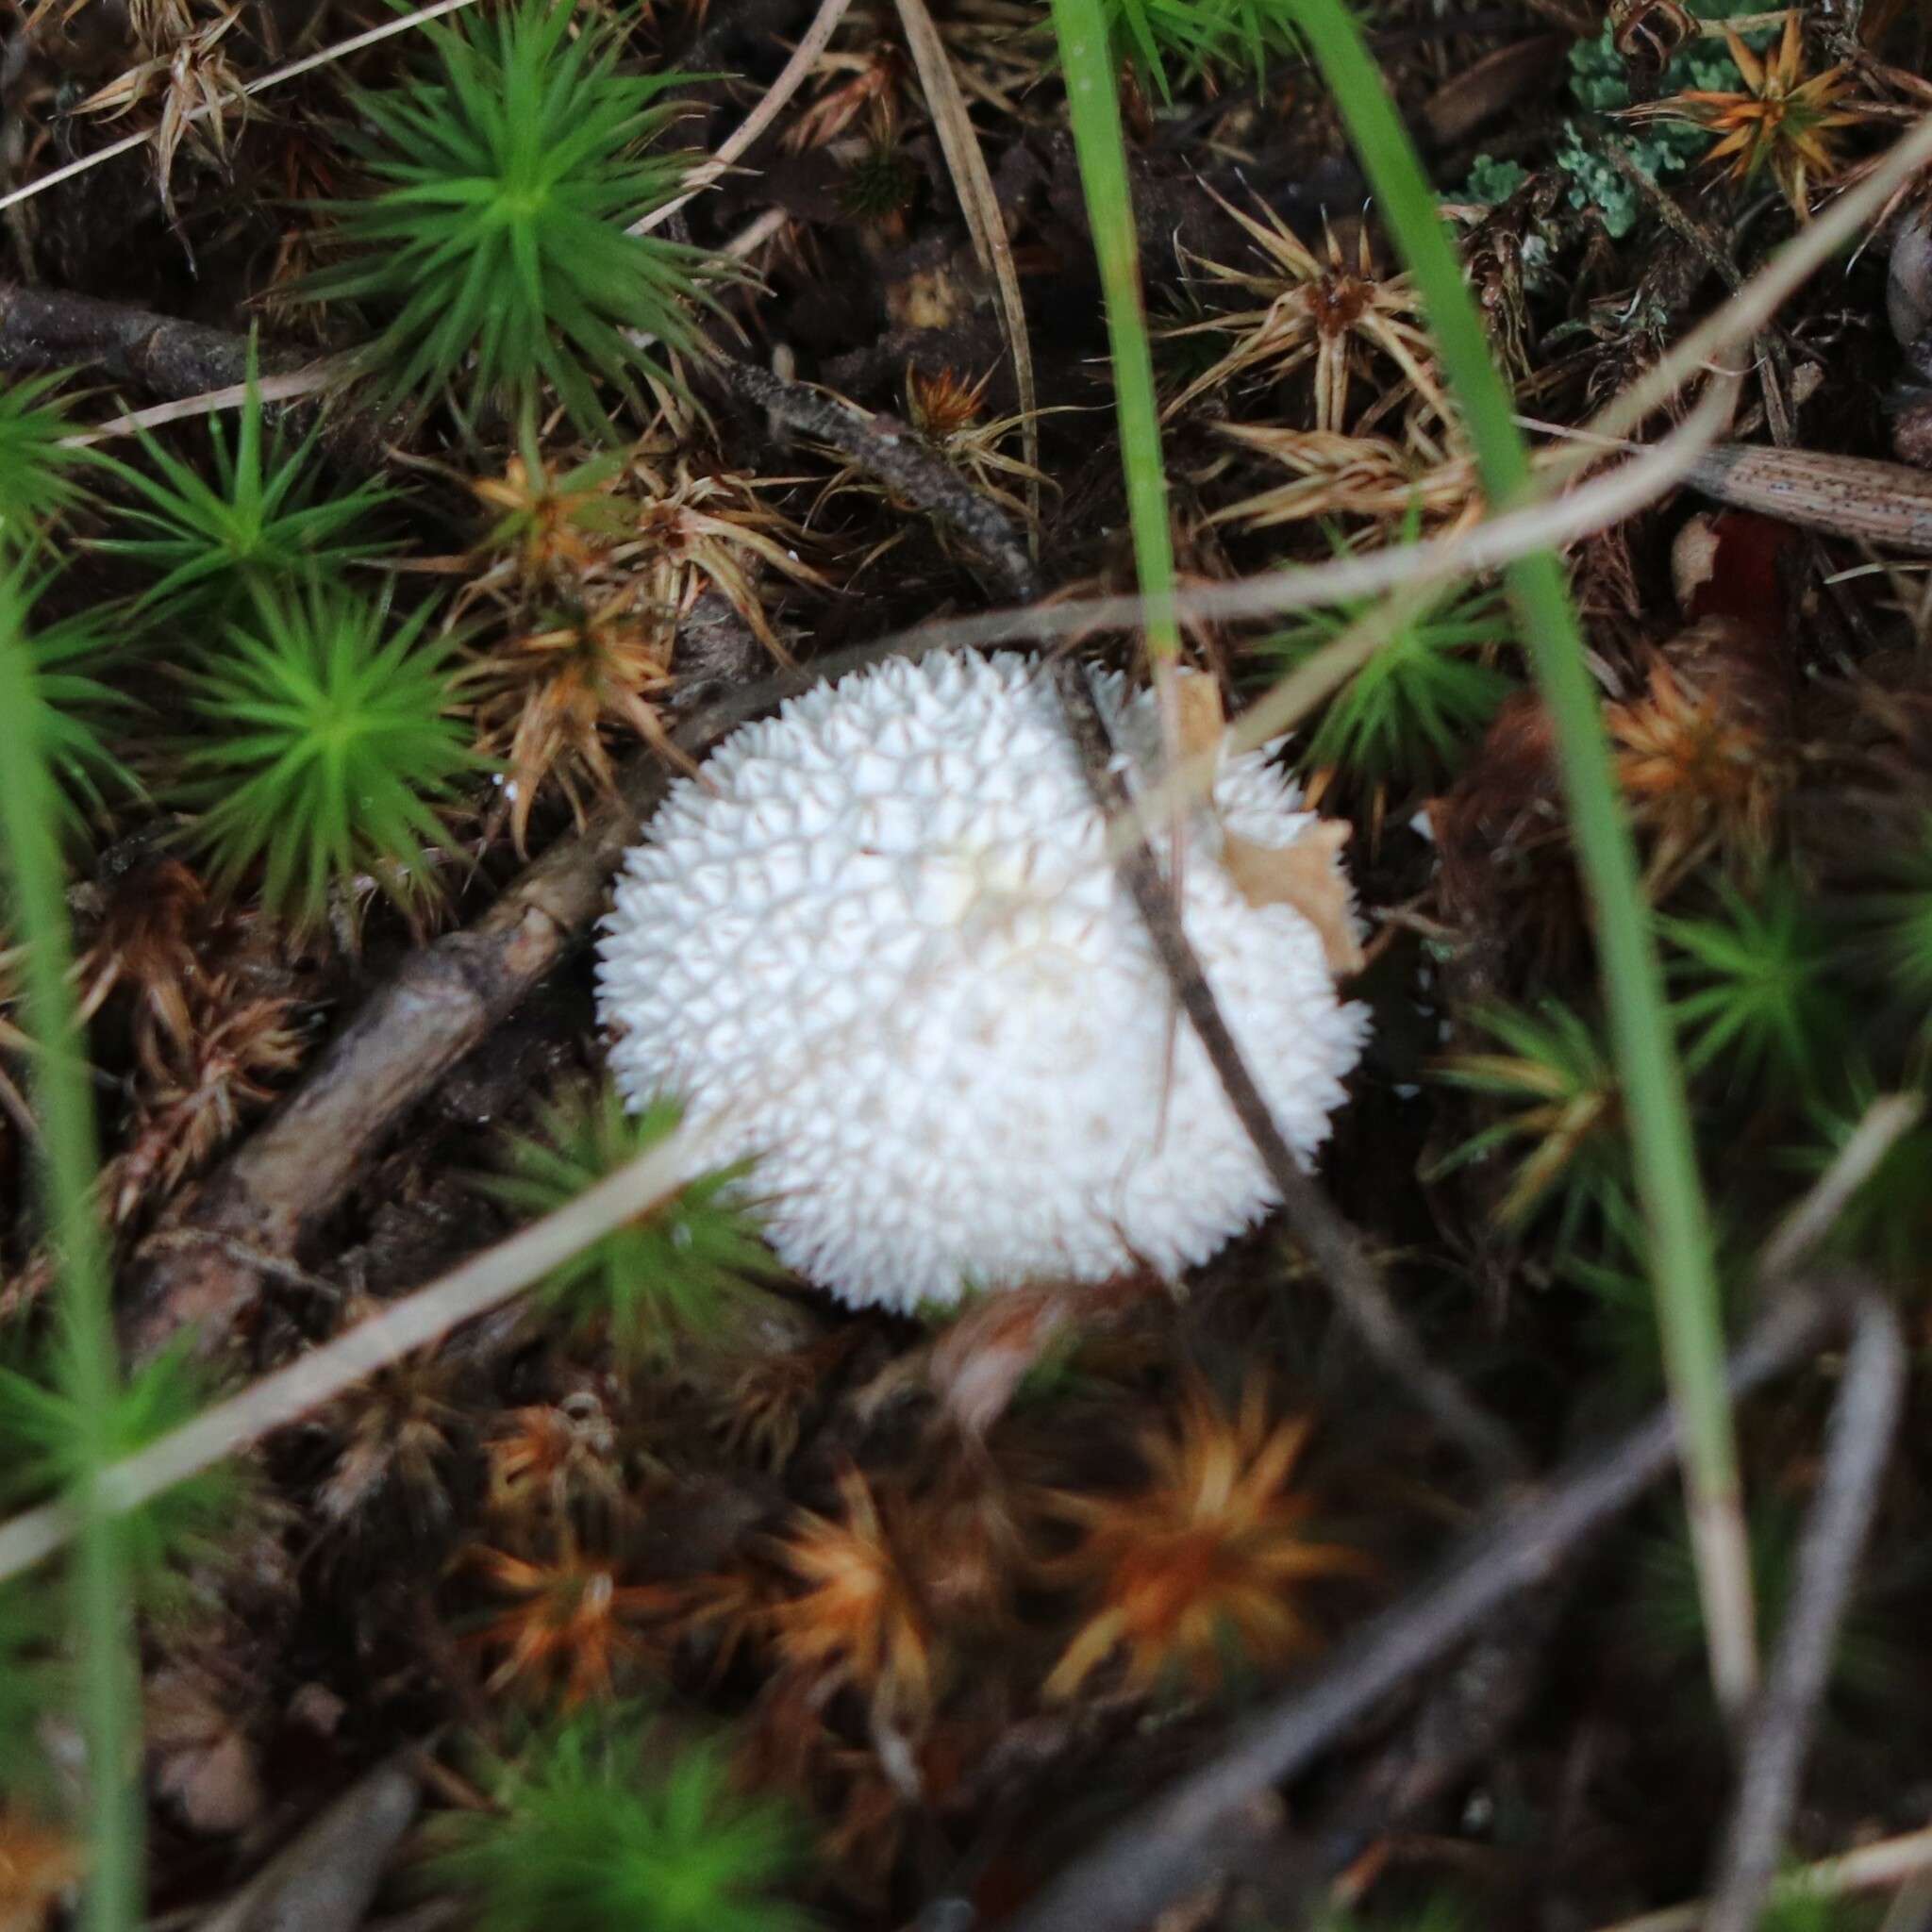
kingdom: Fungi
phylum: Basidiomycota
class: Agaricomycetes
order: Agaricales
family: Agaricaceae
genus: Lycoperdon
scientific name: Lycoperdon marginatum
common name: Peeling puffball
